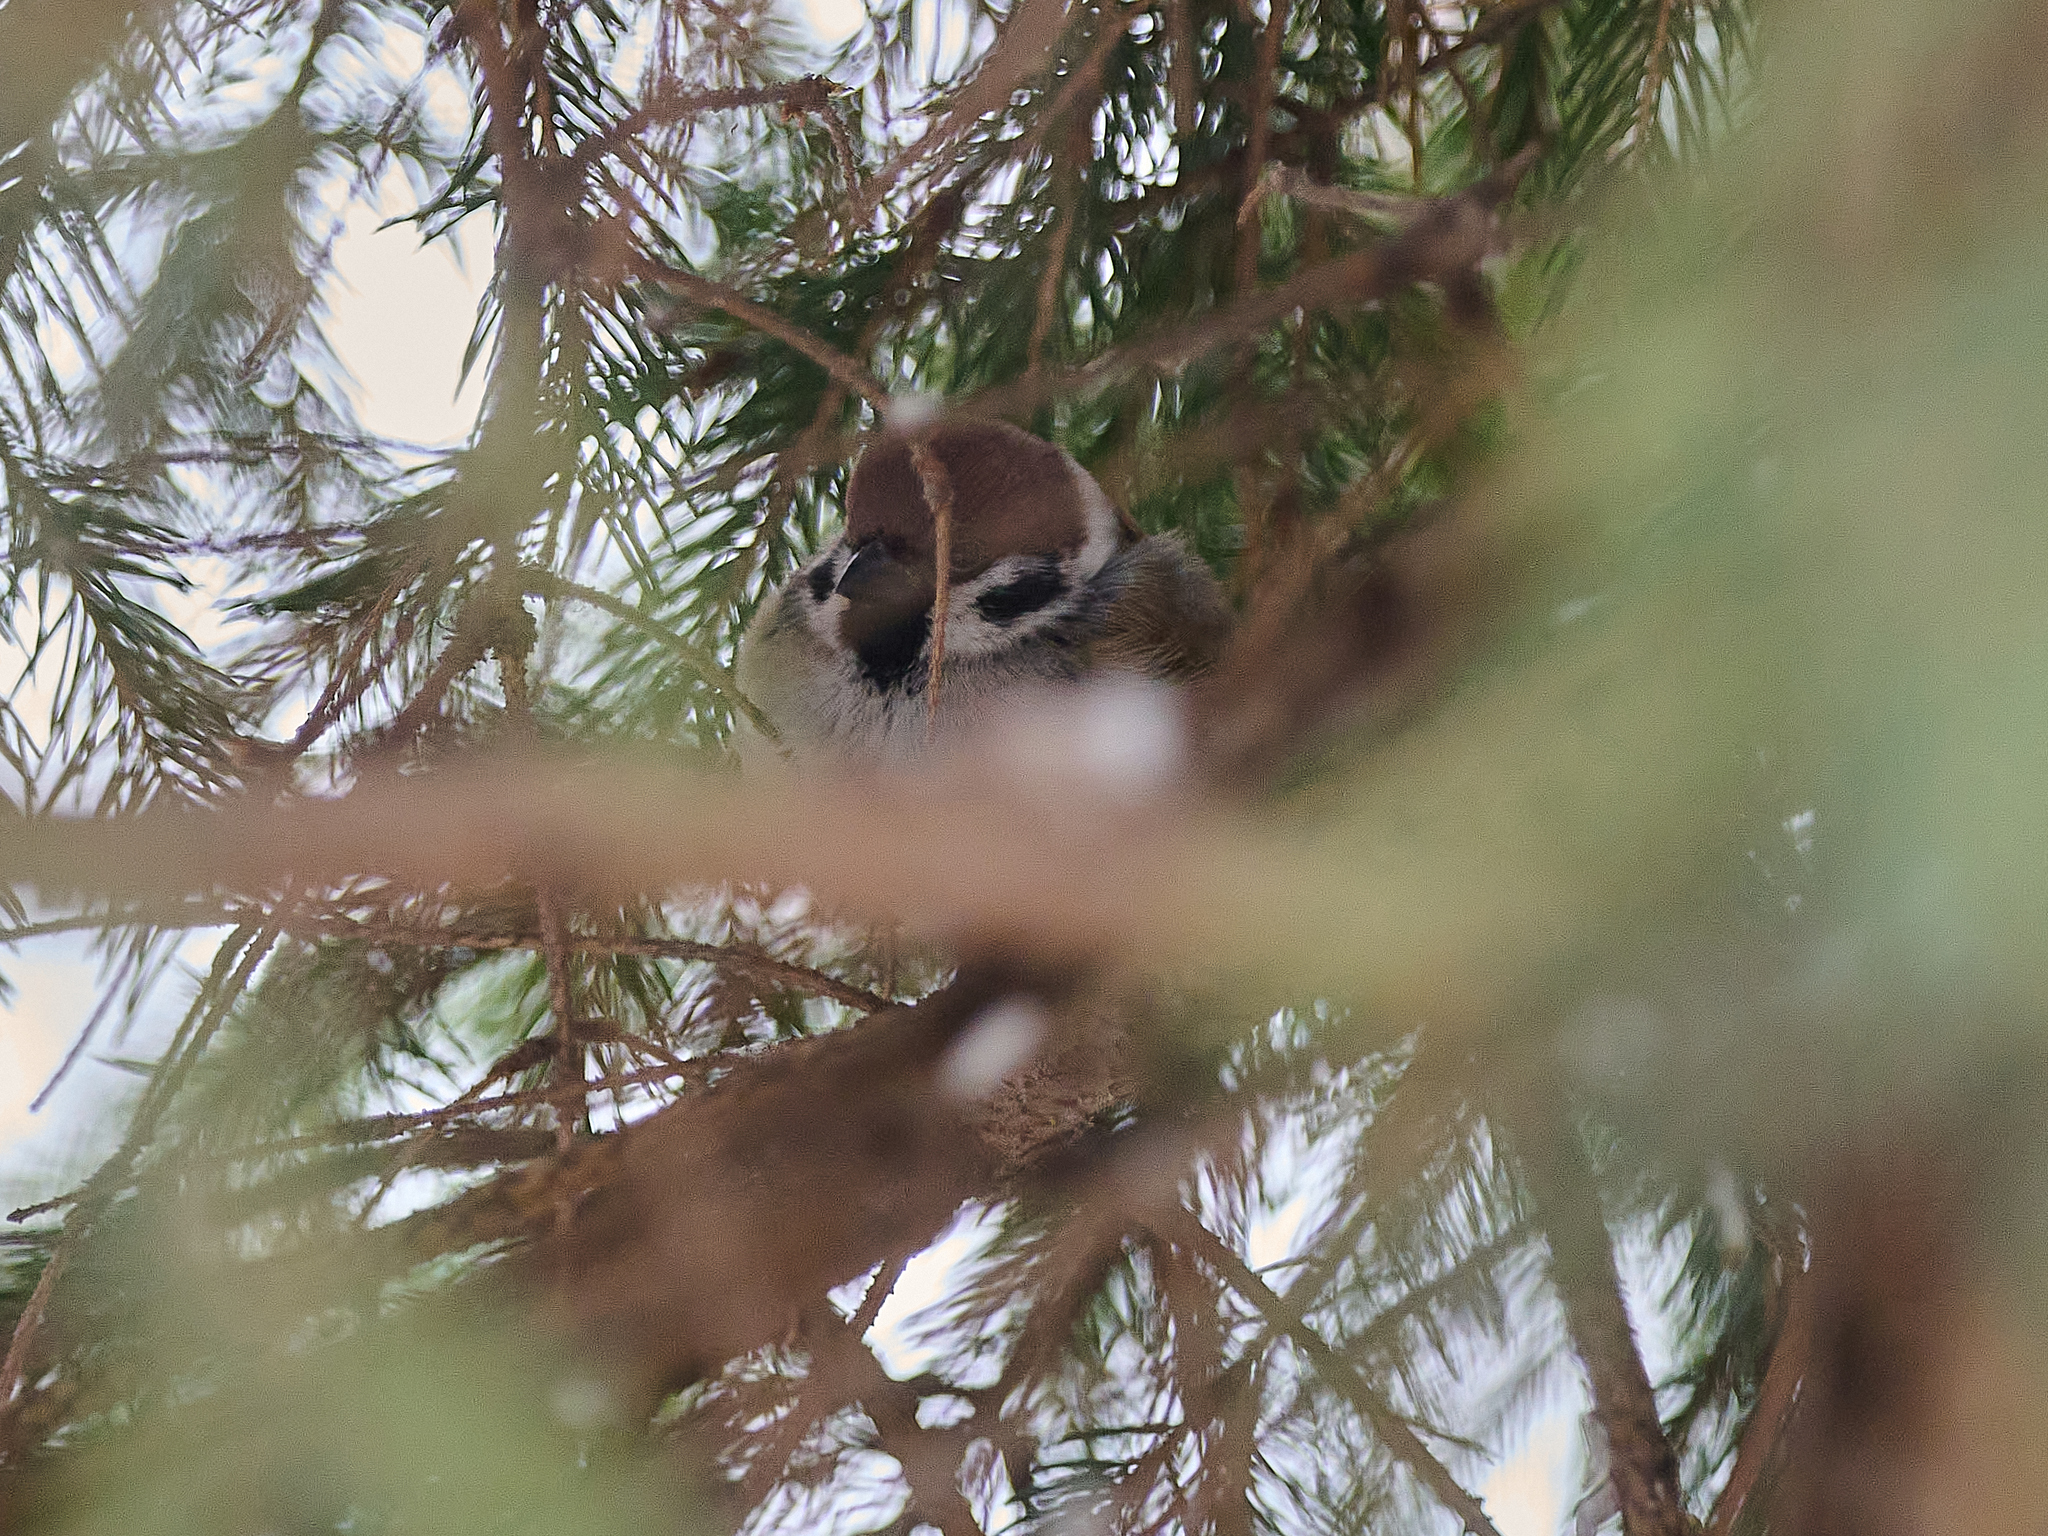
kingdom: Animalia
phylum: Chordata
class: Aves
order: Passeriformes
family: Passeridae
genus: Passer
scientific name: Passer montanus
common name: Eurasian tree sparrow
